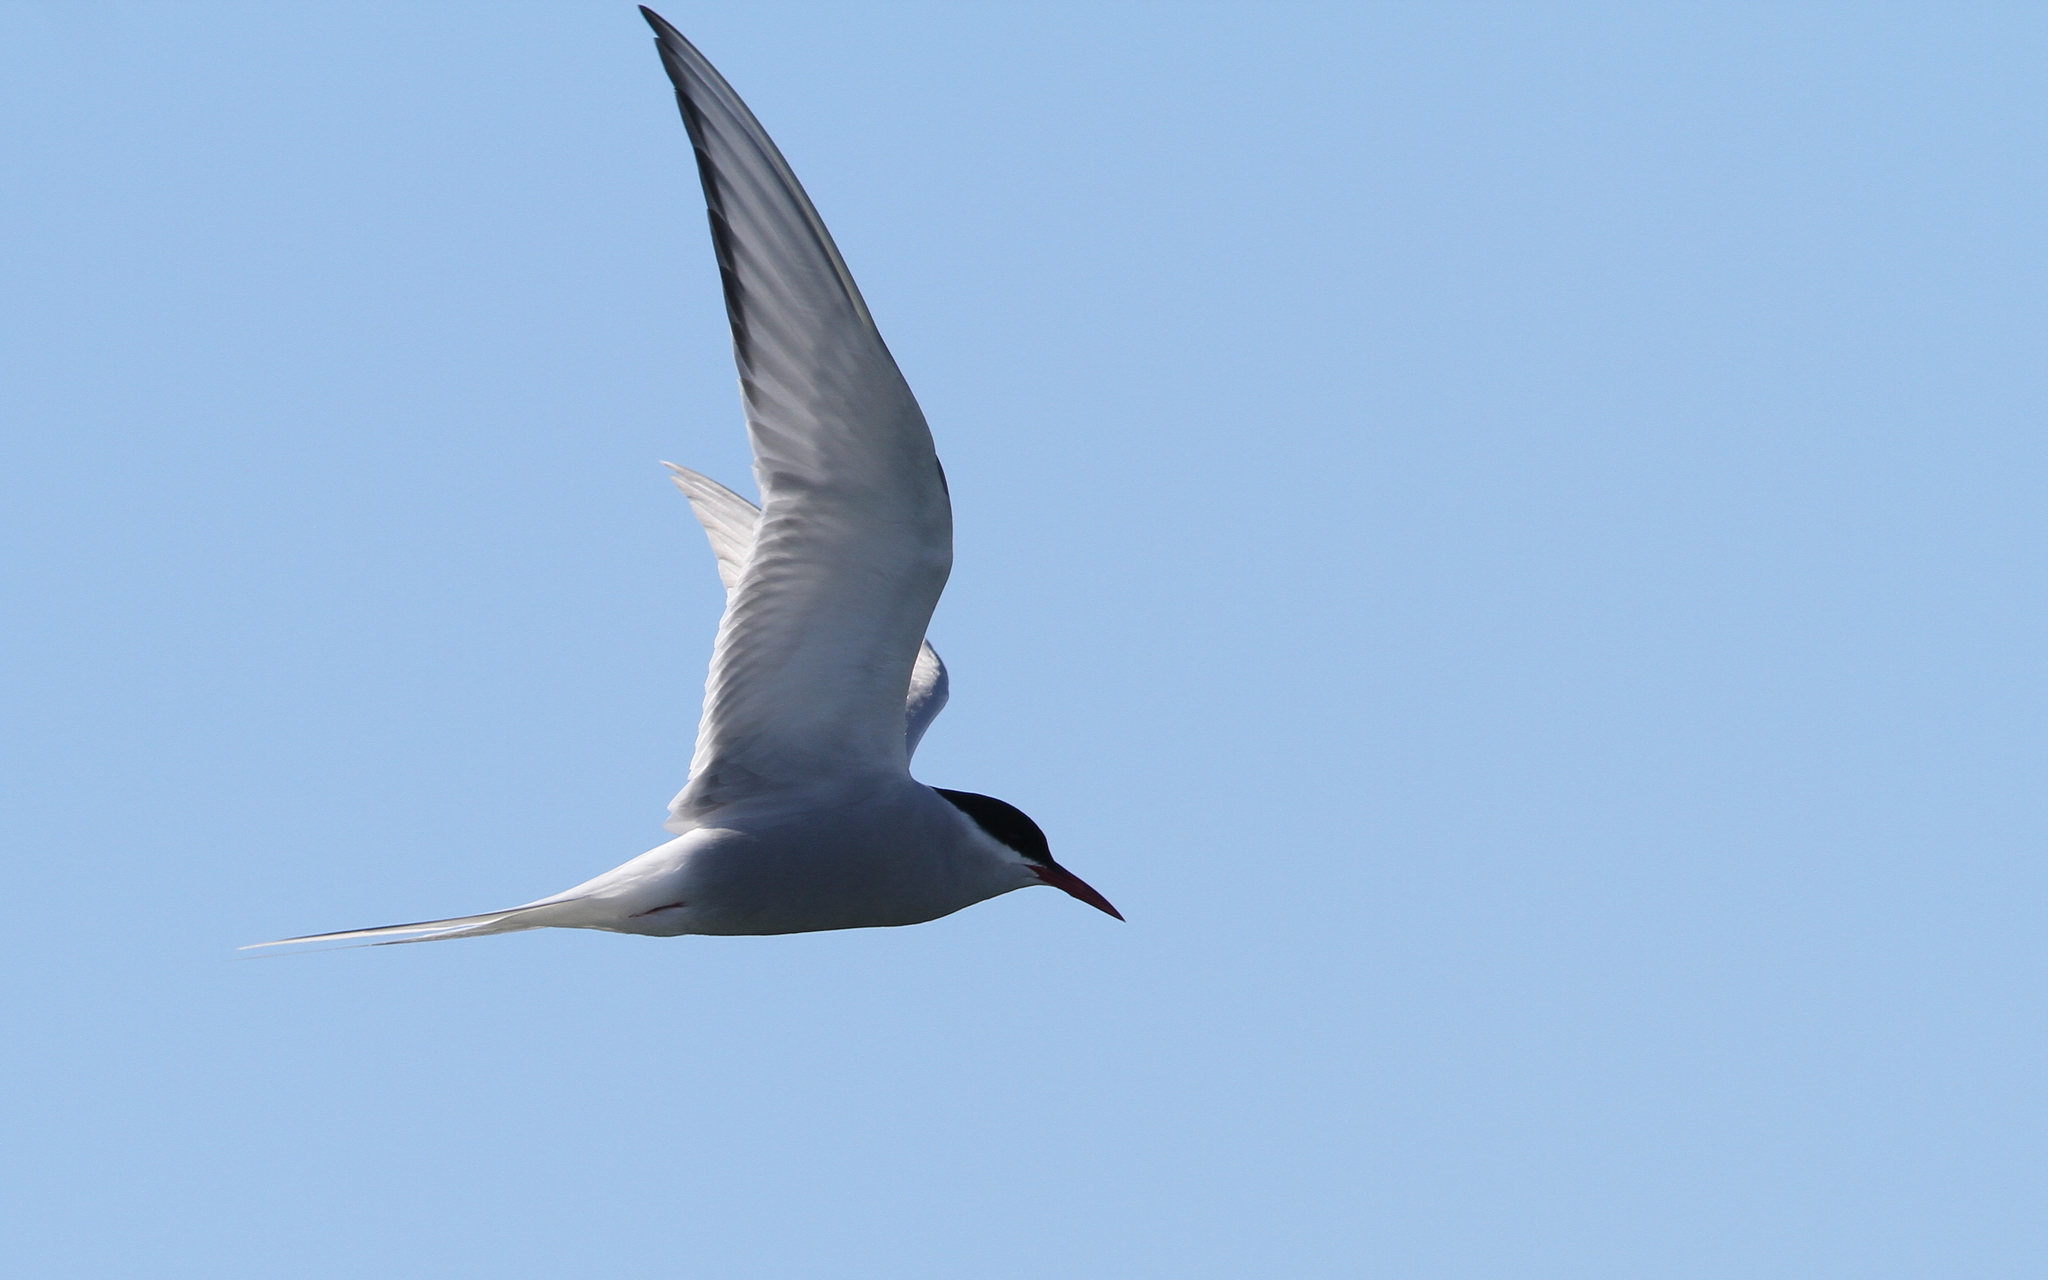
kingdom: Animalia
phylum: Chordata
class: Aves
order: Charadriiformes
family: Laridae
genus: Sterna
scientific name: Sterna paradisaea
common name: Arctic tern
